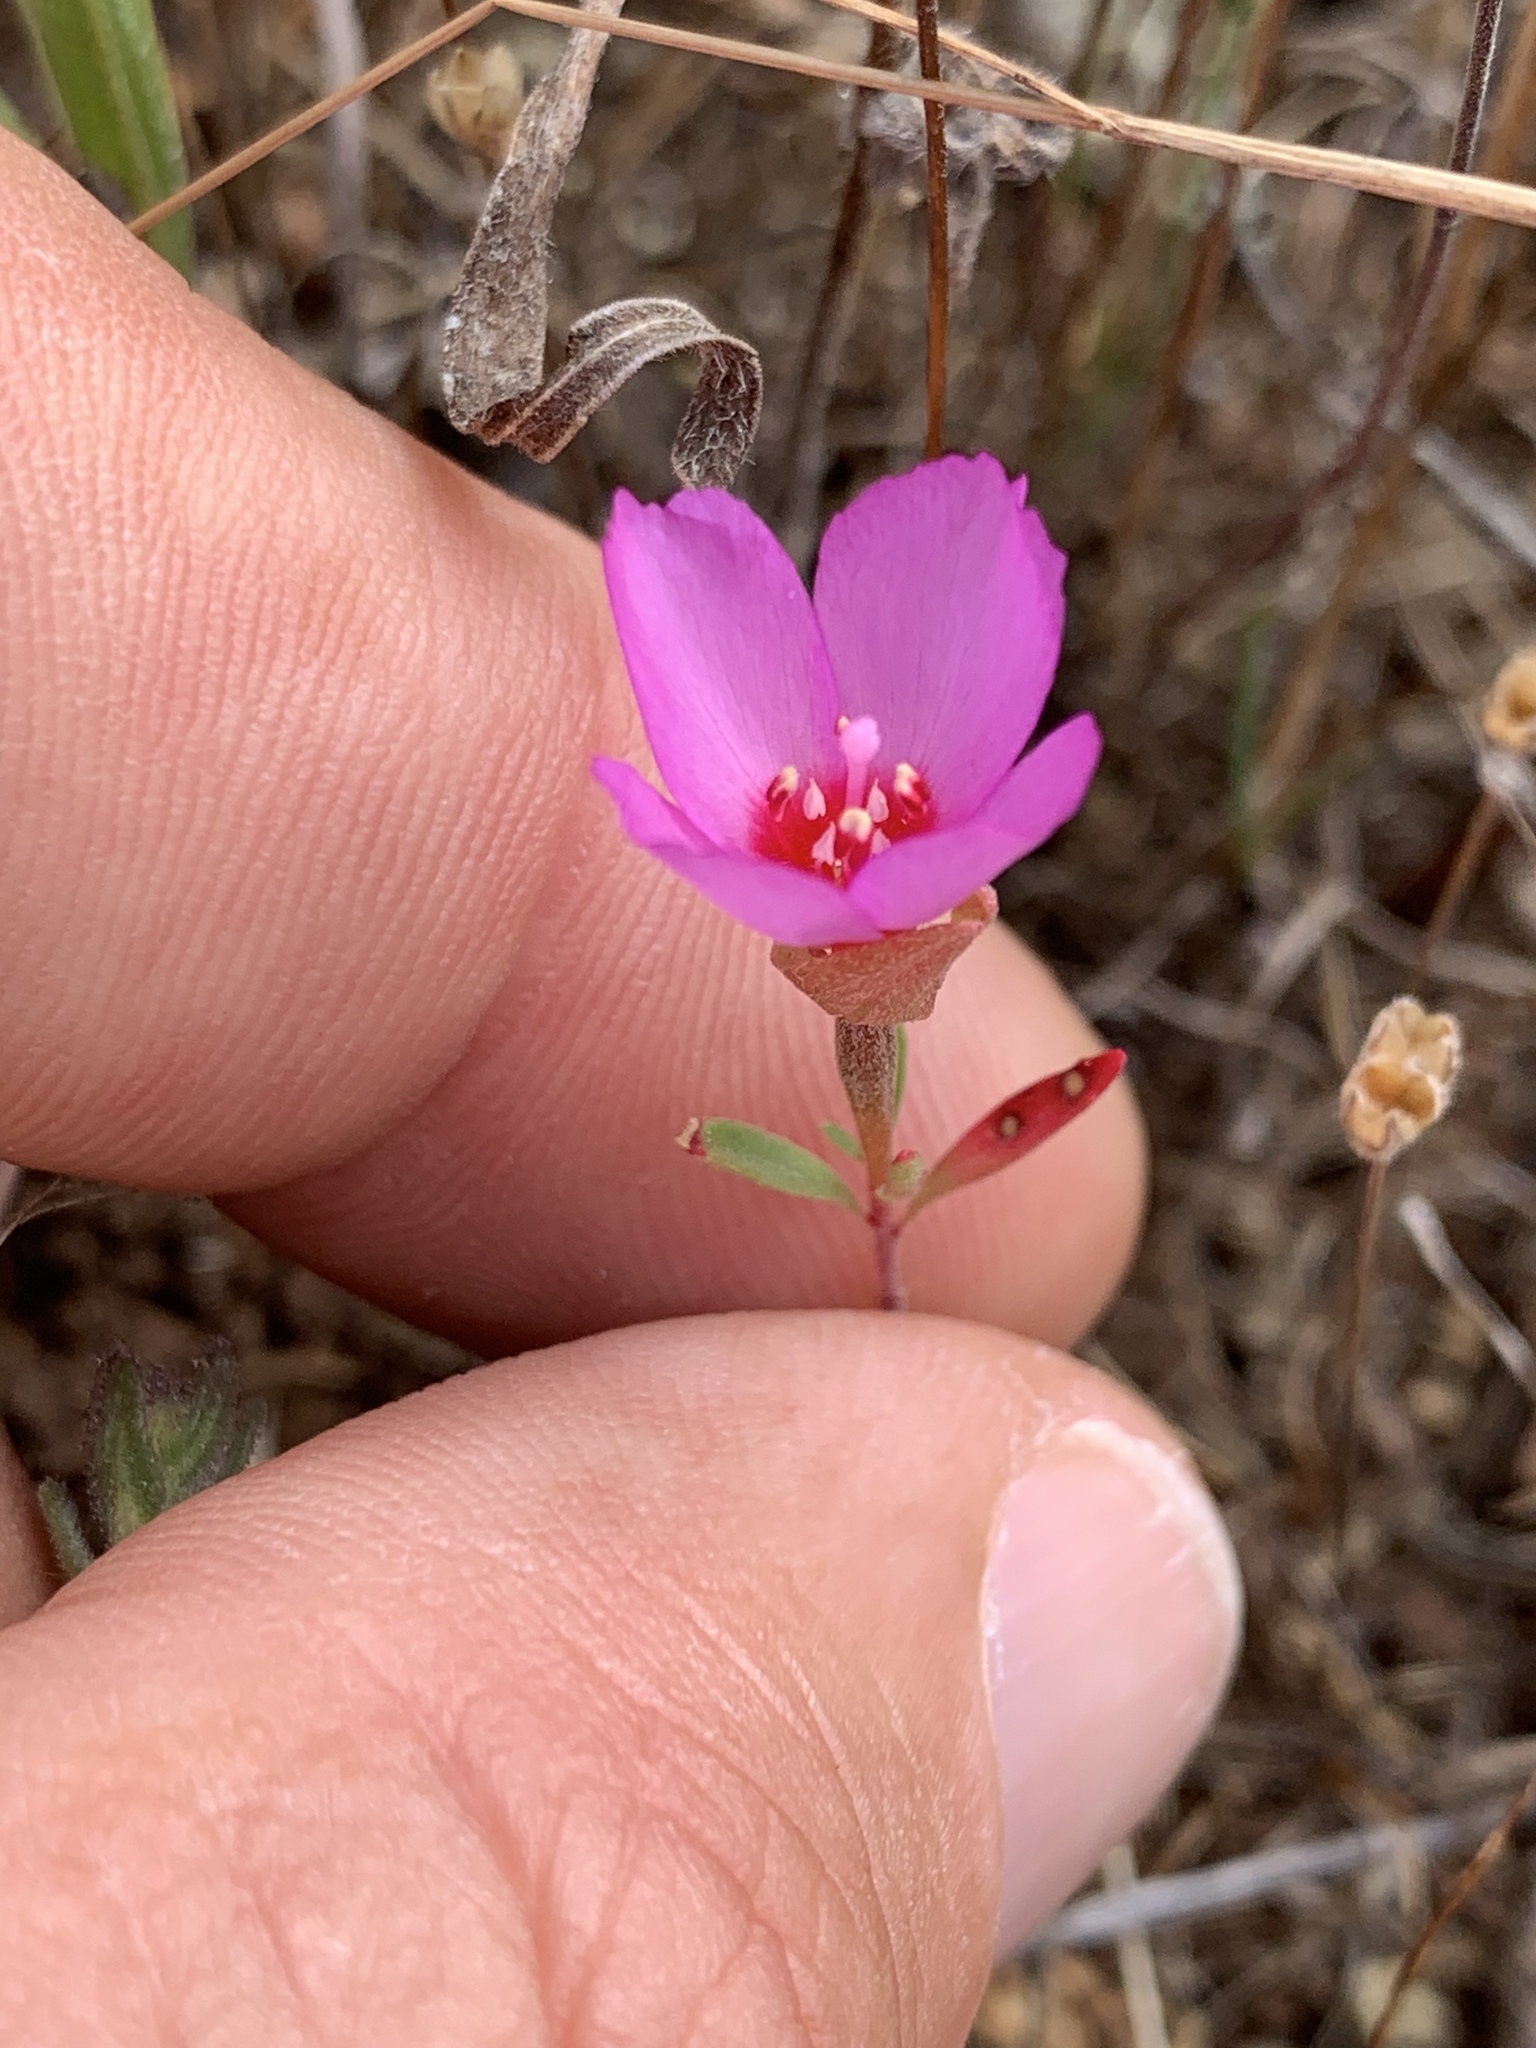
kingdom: Plantae
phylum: Tracheophyta
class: Magnoliopsida
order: Myrtales
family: Onagraceae
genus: Clarkia
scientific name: Clarkia rubicunda
